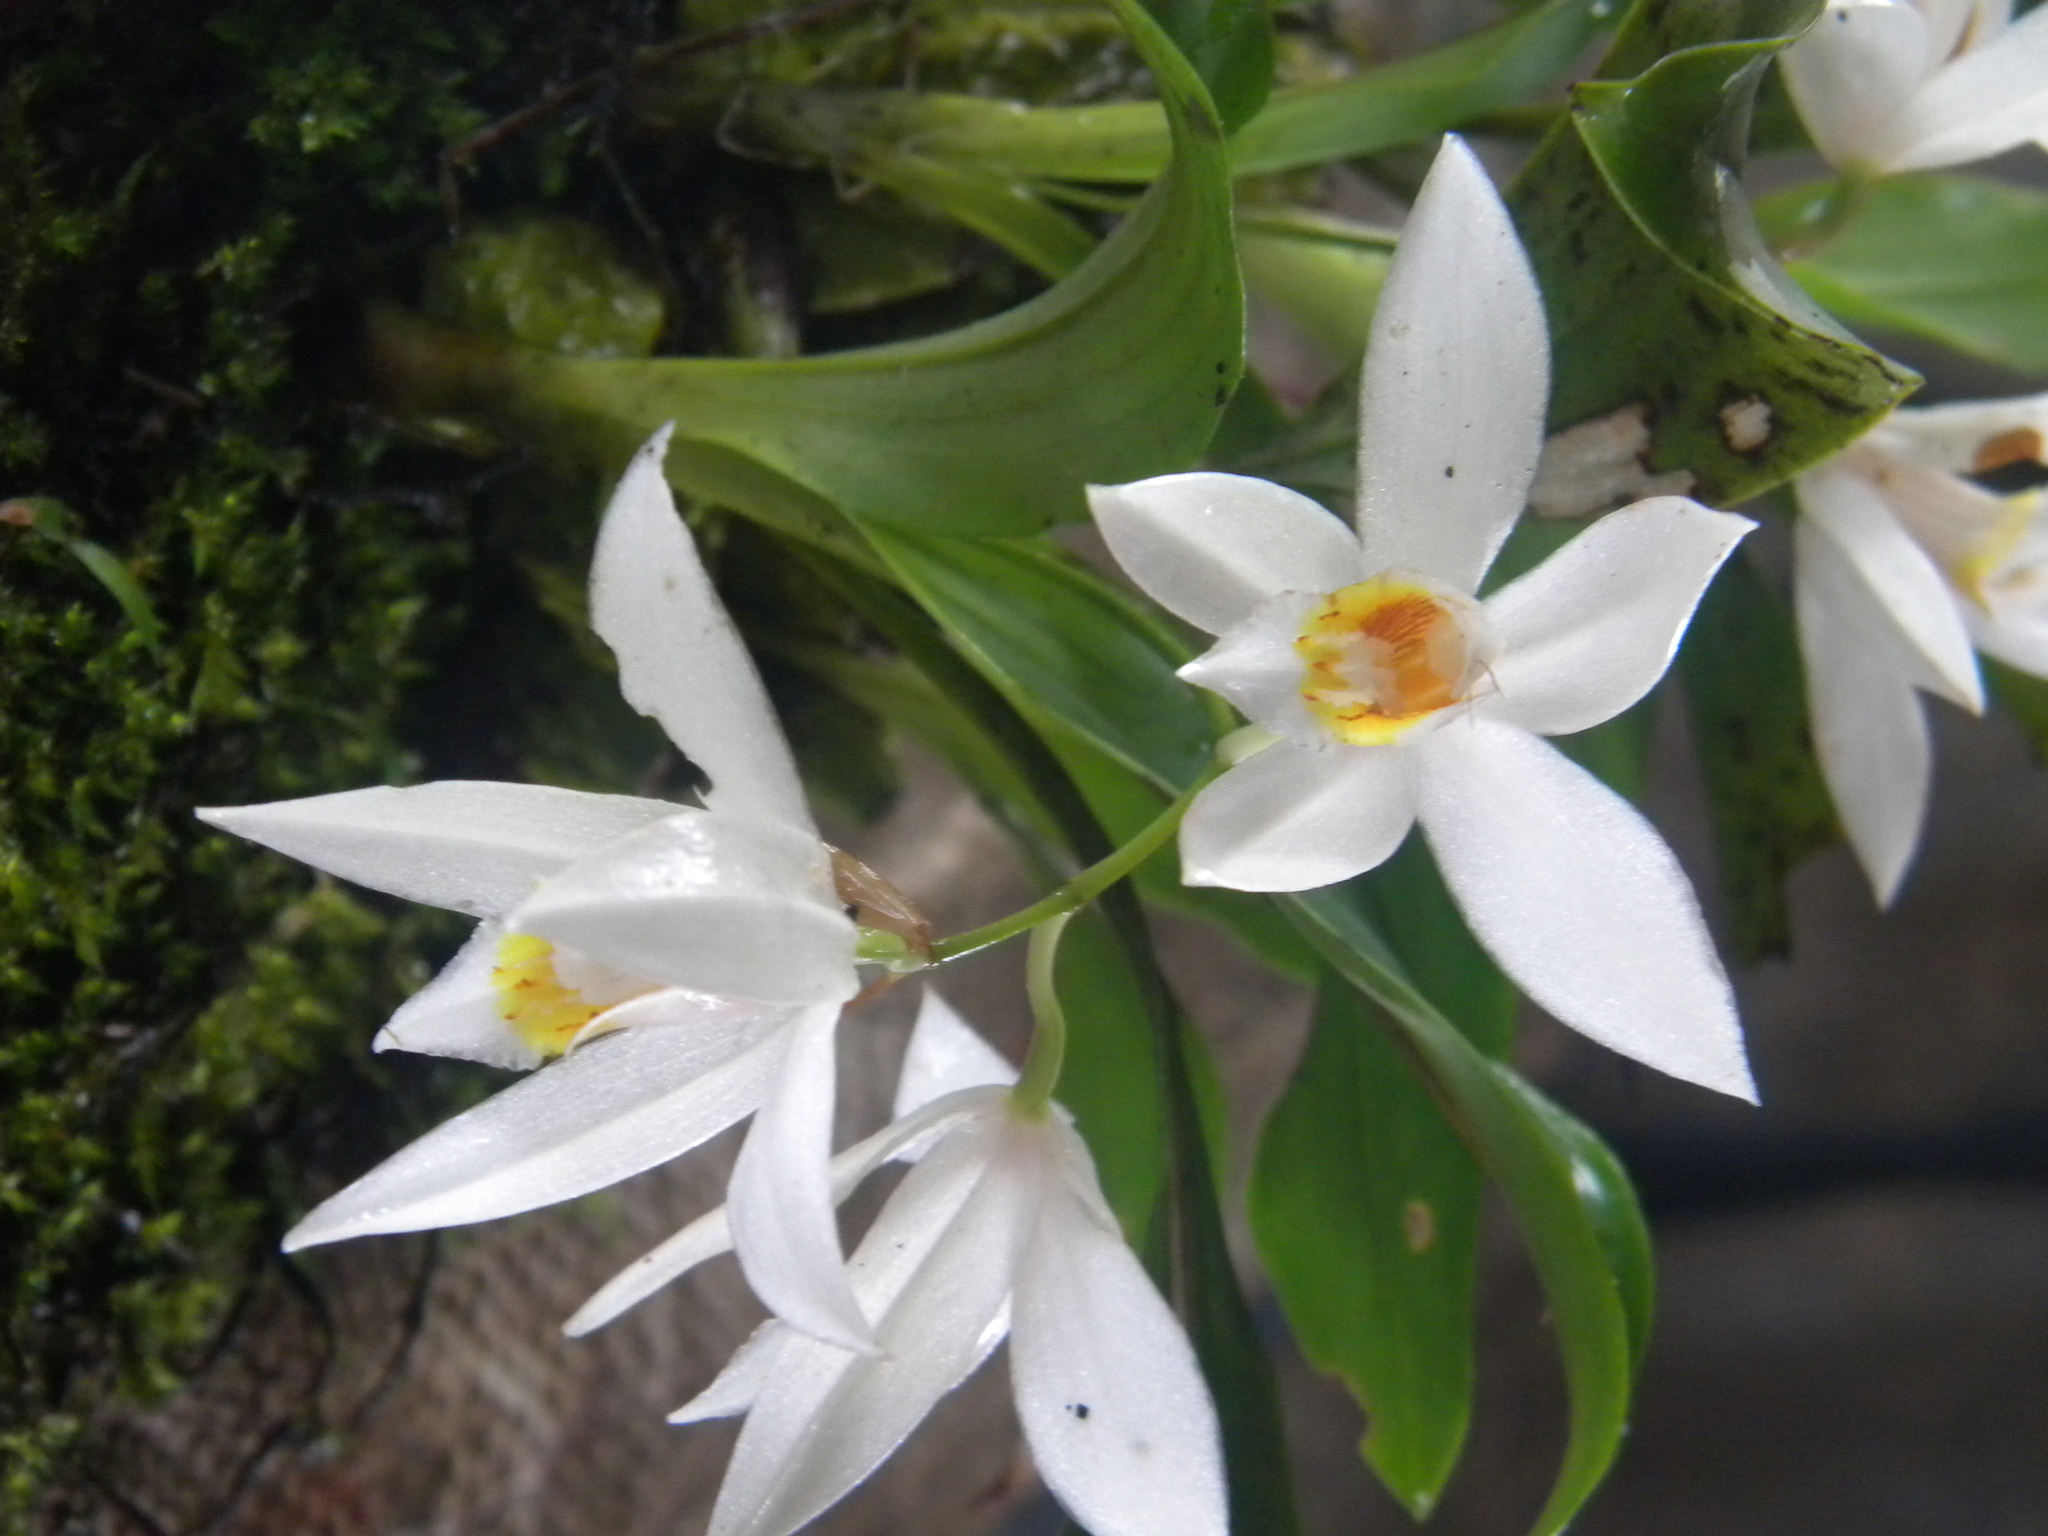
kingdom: Plantae
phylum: Tracheophyta
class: Liliopsida
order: Asparagales
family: Orchidaceae
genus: Coelogyne
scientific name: Coelogyne nervosa
